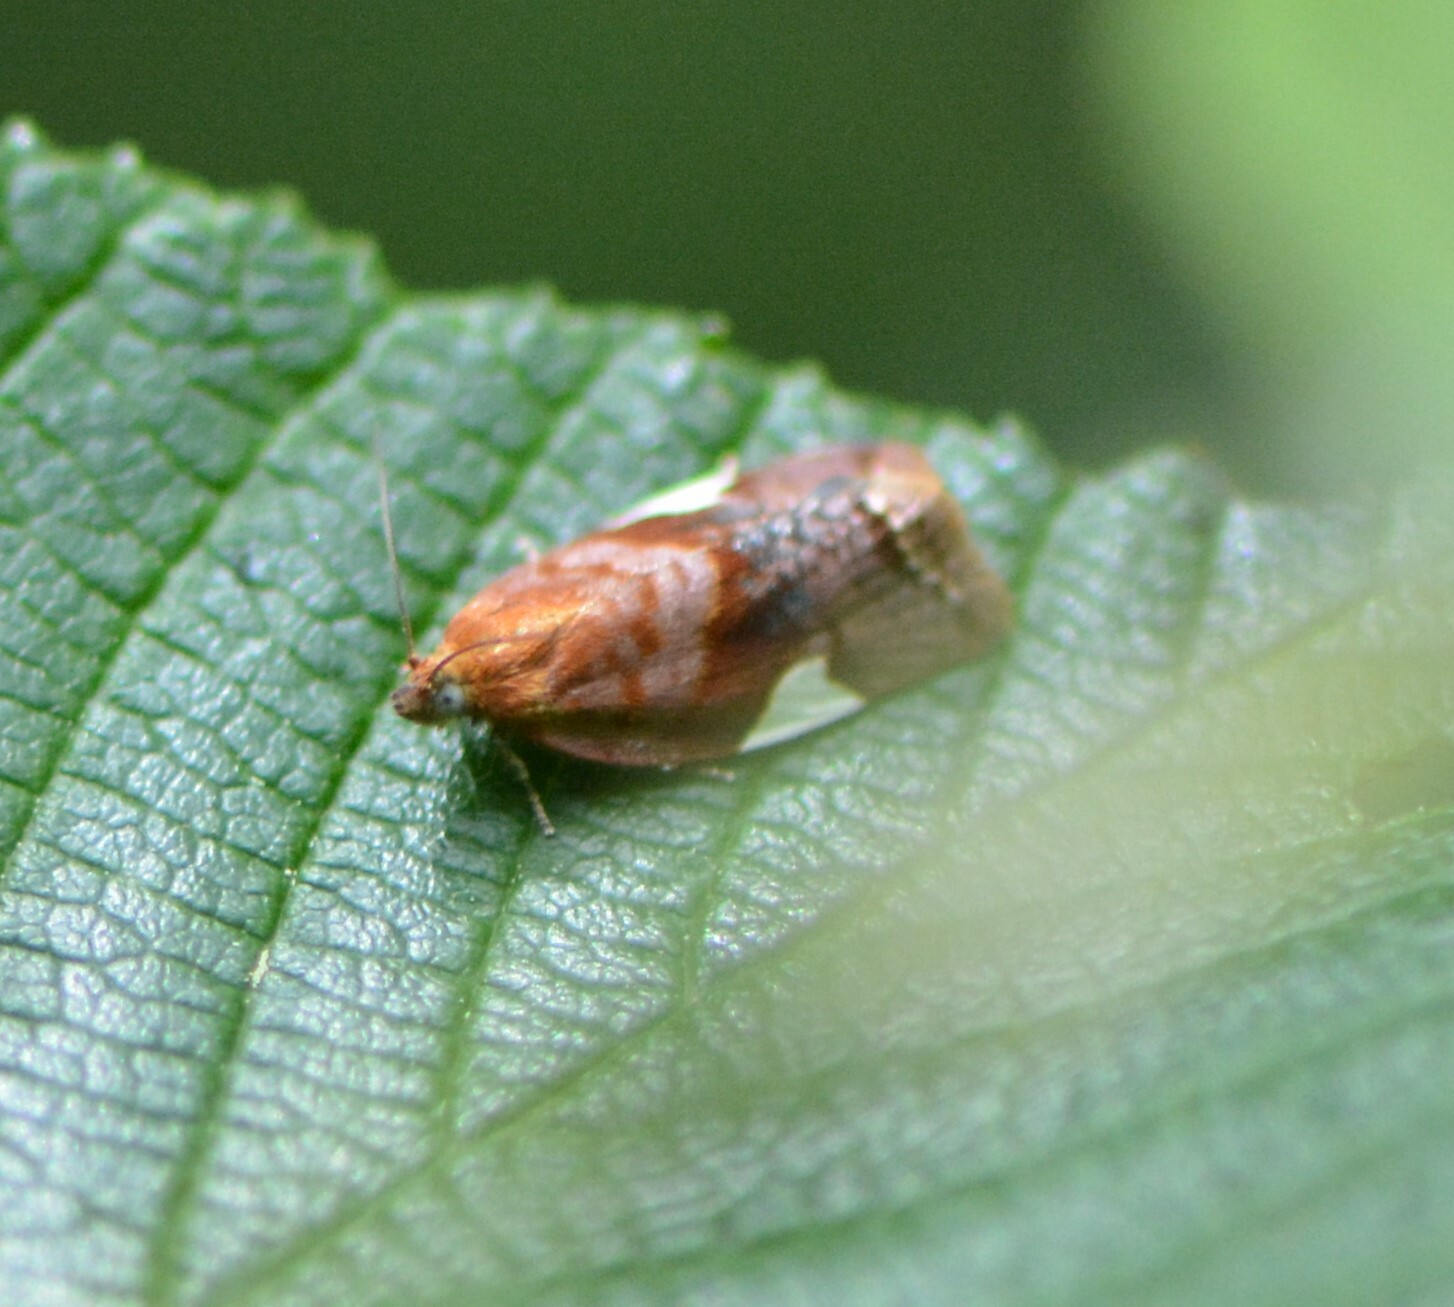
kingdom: Animalia
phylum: Arthropoda
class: Insecta
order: Lepidoptera
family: Tortricidae
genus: Clepsis
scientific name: Clepsis persicana
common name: White triangle tortrix
